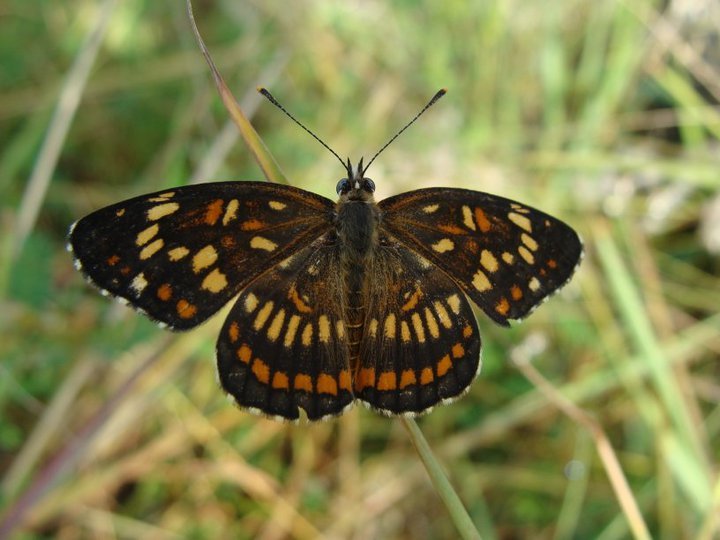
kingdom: Animalia
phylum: Arthropoda
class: Insecta
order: Lepidoptera
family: Nymphalidae
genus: Thessalia
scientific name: Thessalia theona
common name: Nymphalid moth
